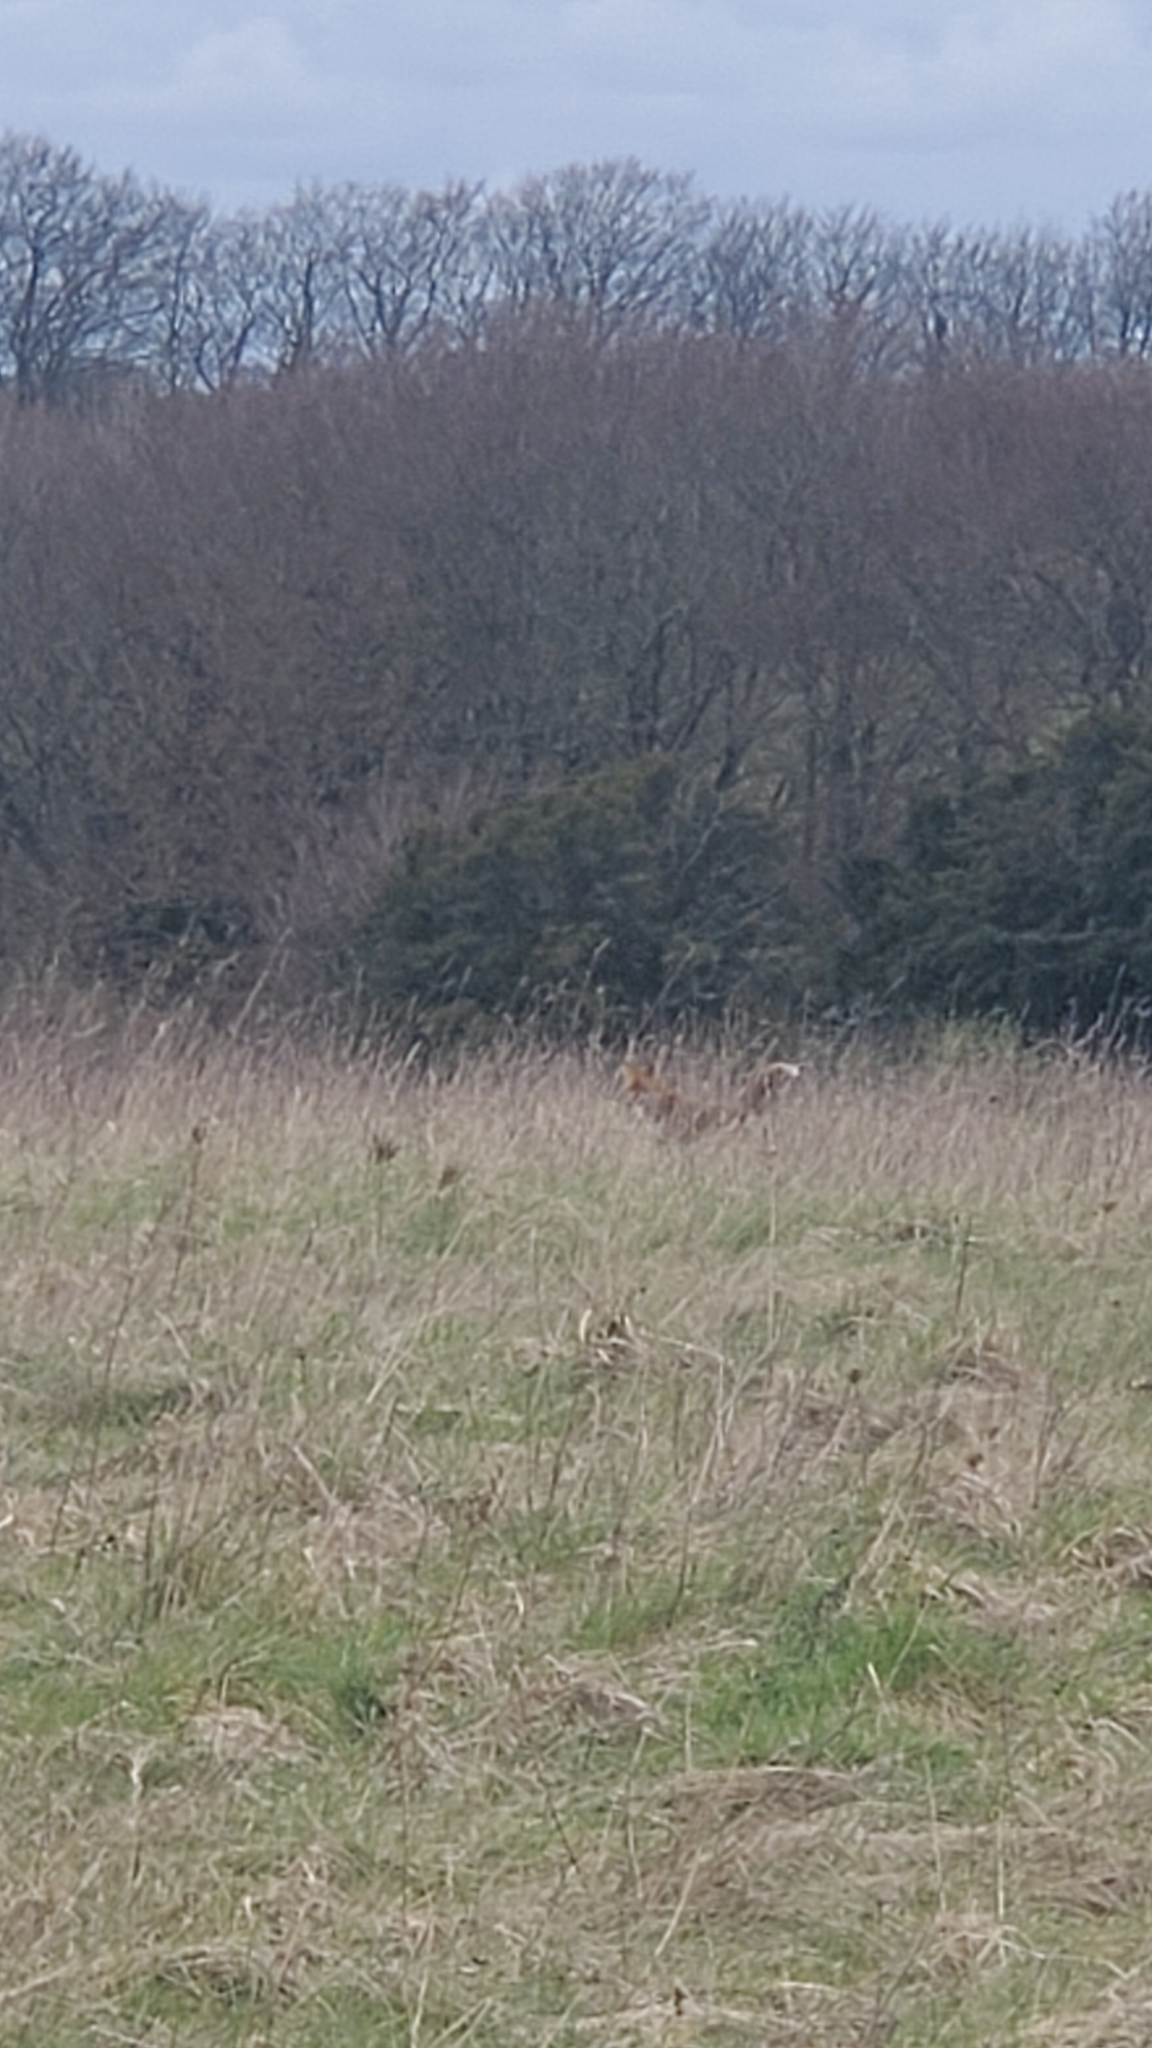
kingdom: Animalia
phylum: Chordata
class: Mammalia
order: Carnivora
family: Canidae
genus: Vulpes
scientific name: Vulpes vulpes
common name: Red fox
